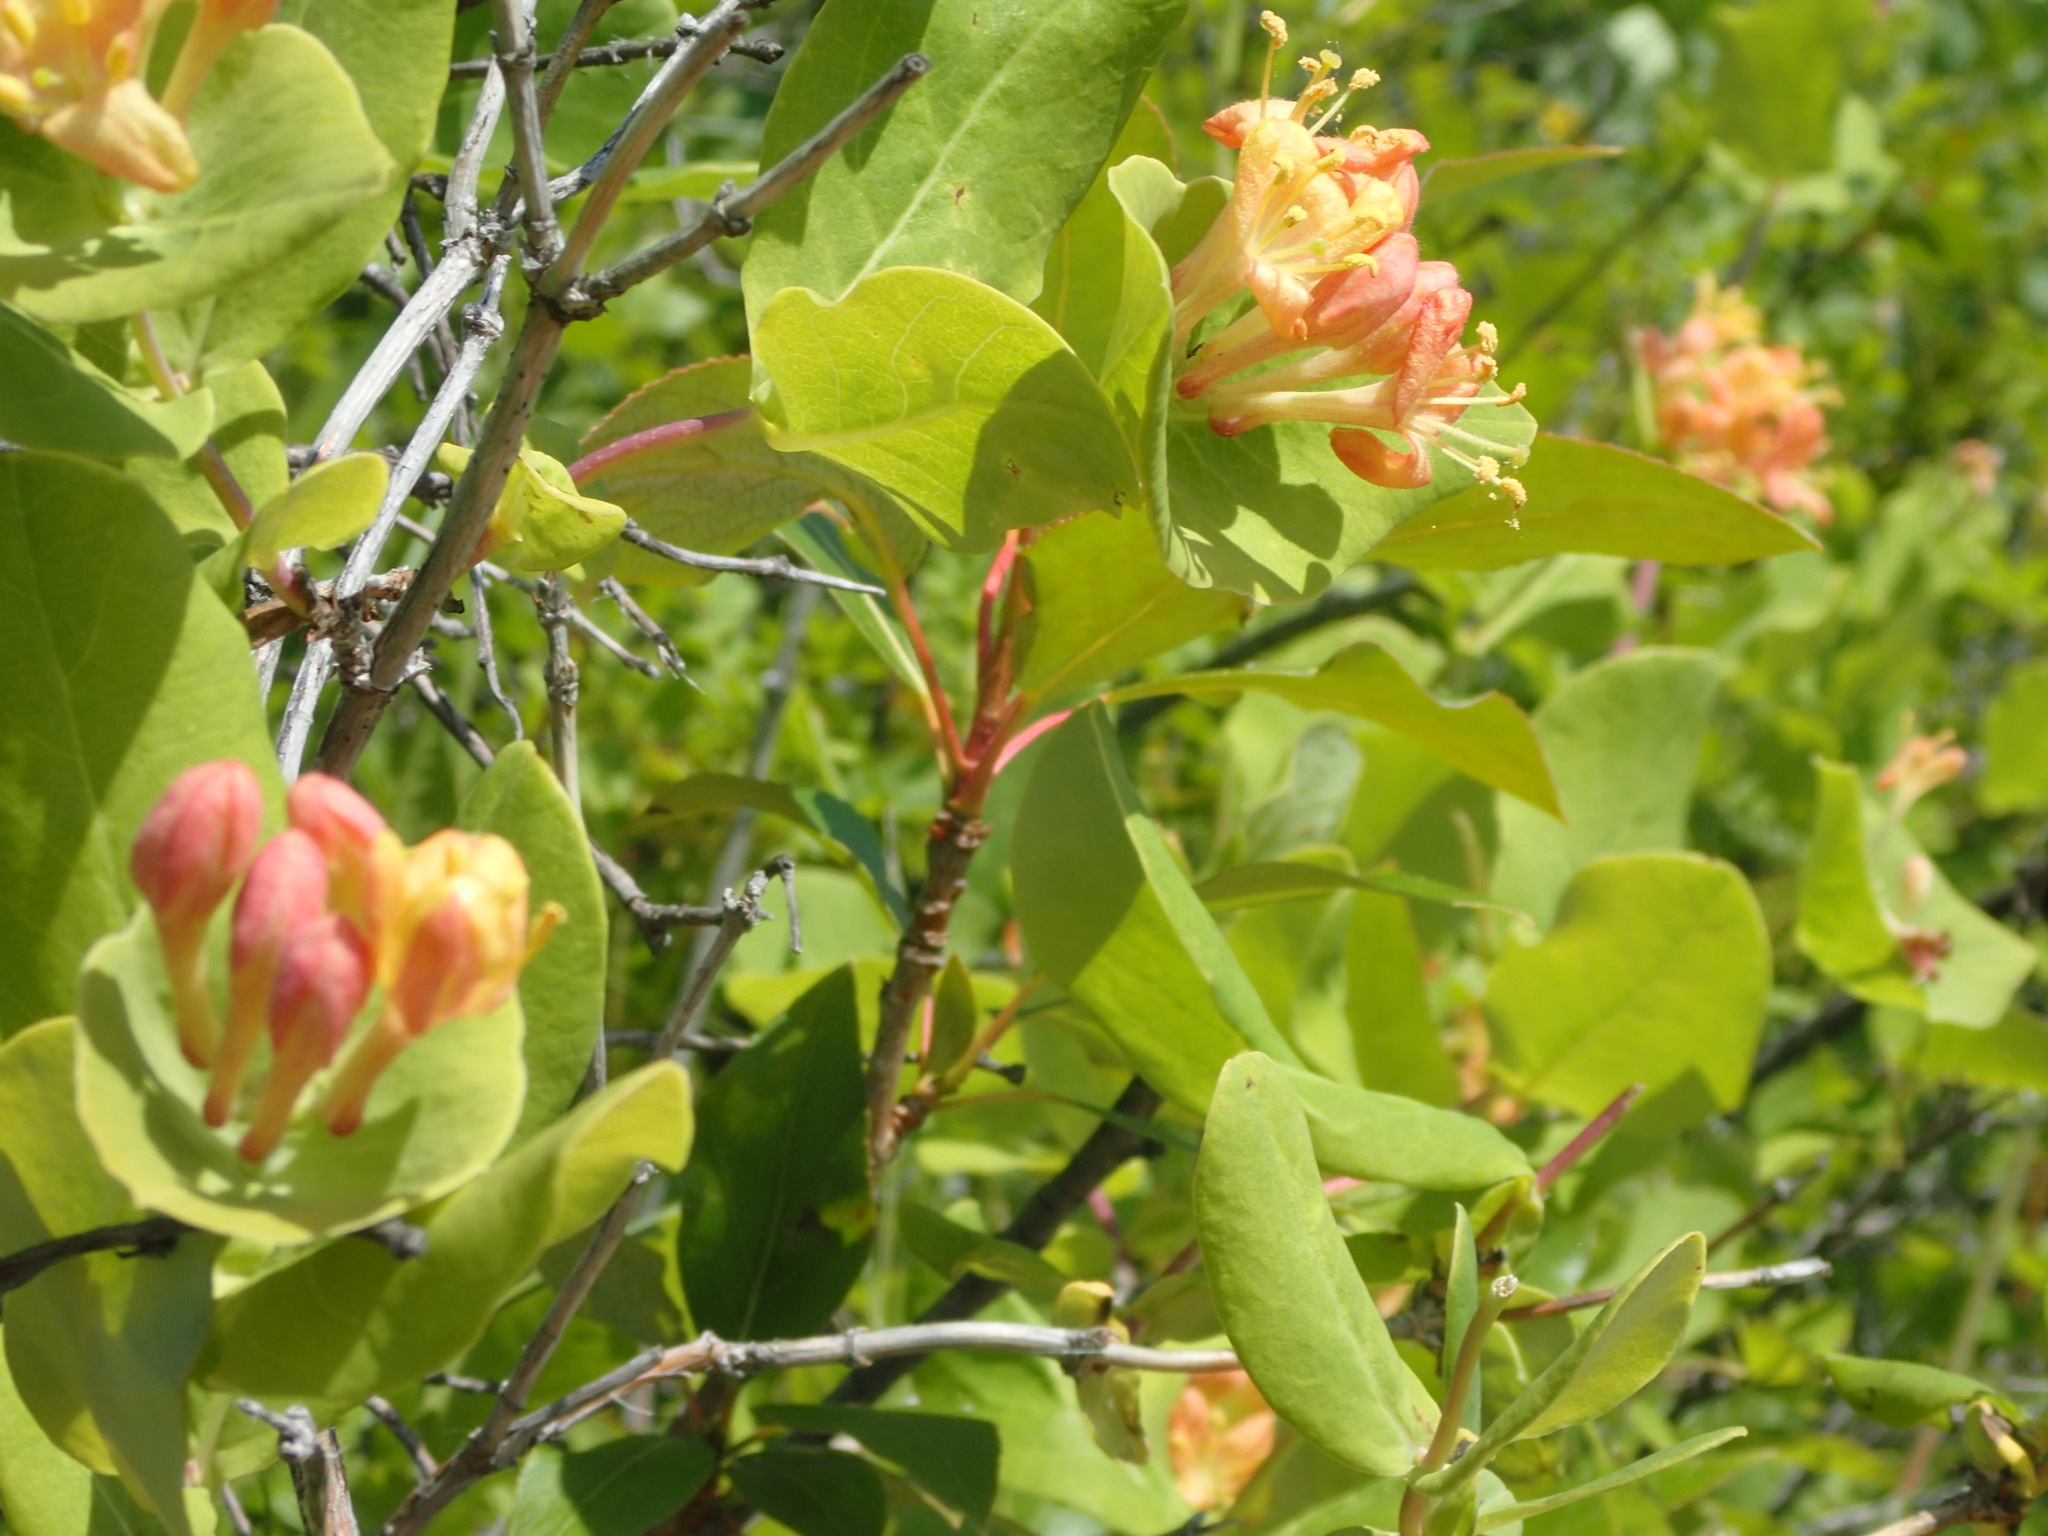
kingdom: Plantae
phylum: Tracheophyta
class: Magnoliopsida
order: Dipsacales
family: Caprifoliaceae
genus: Lonicera
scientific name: Lonicera dioica
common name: Limber honeysuckle
